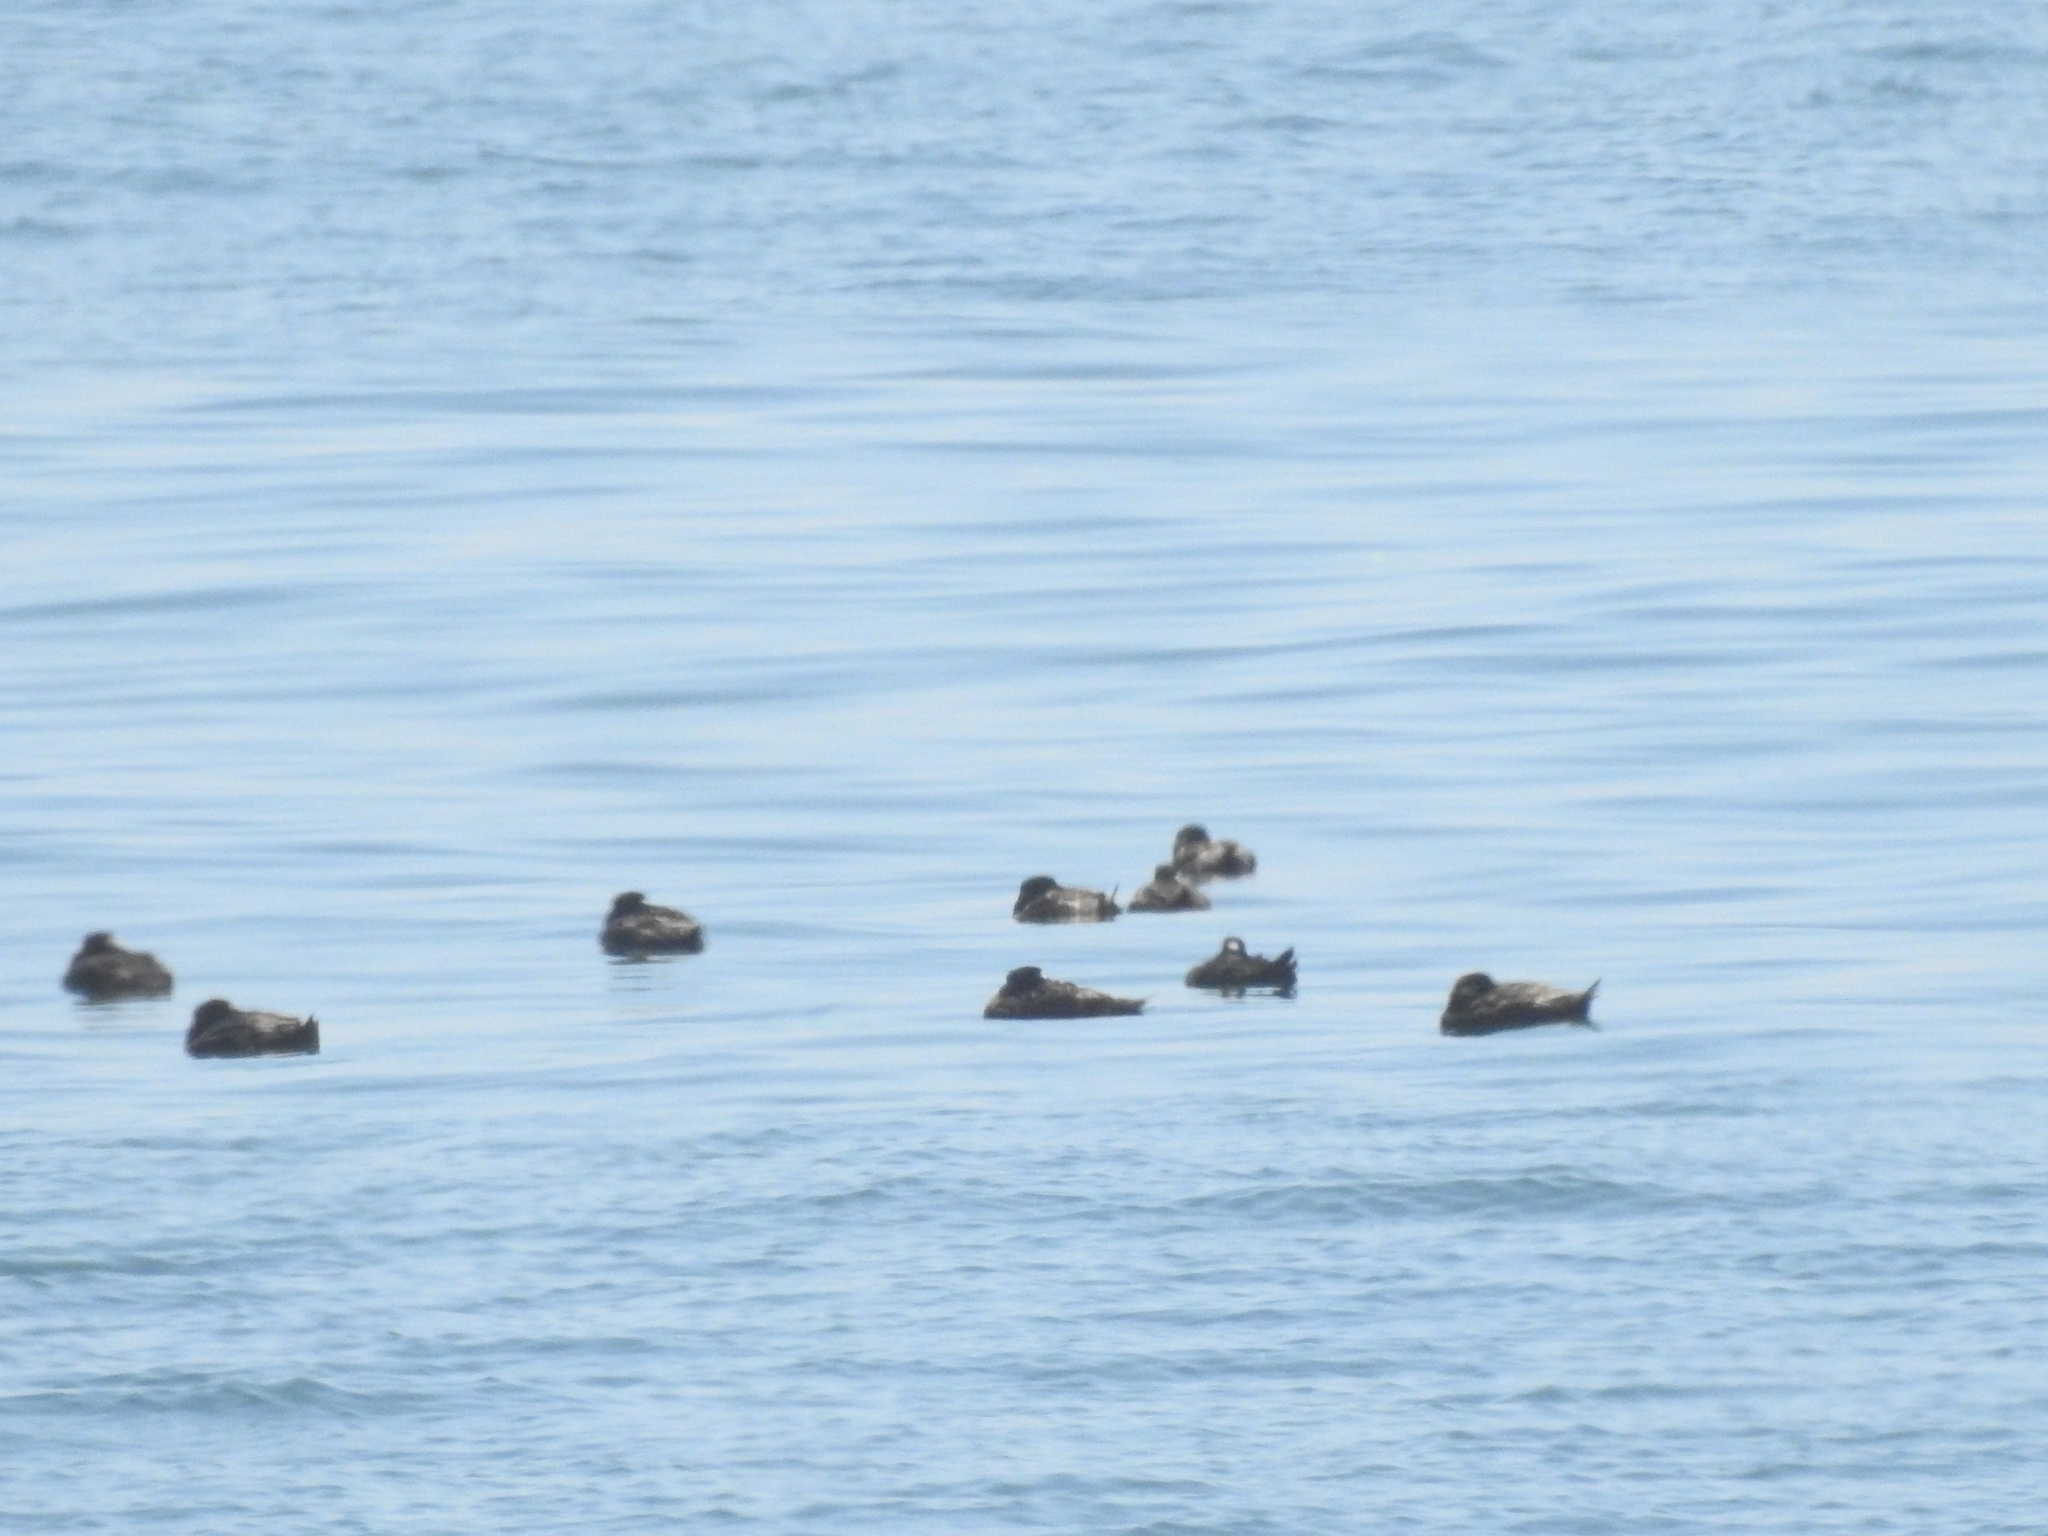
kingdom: Animalia
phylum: Chordata
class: Aves
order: Anseriformes
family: Anatidae
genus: Melanitta
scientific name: Melanitta perspicillata
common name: Surf scoter
